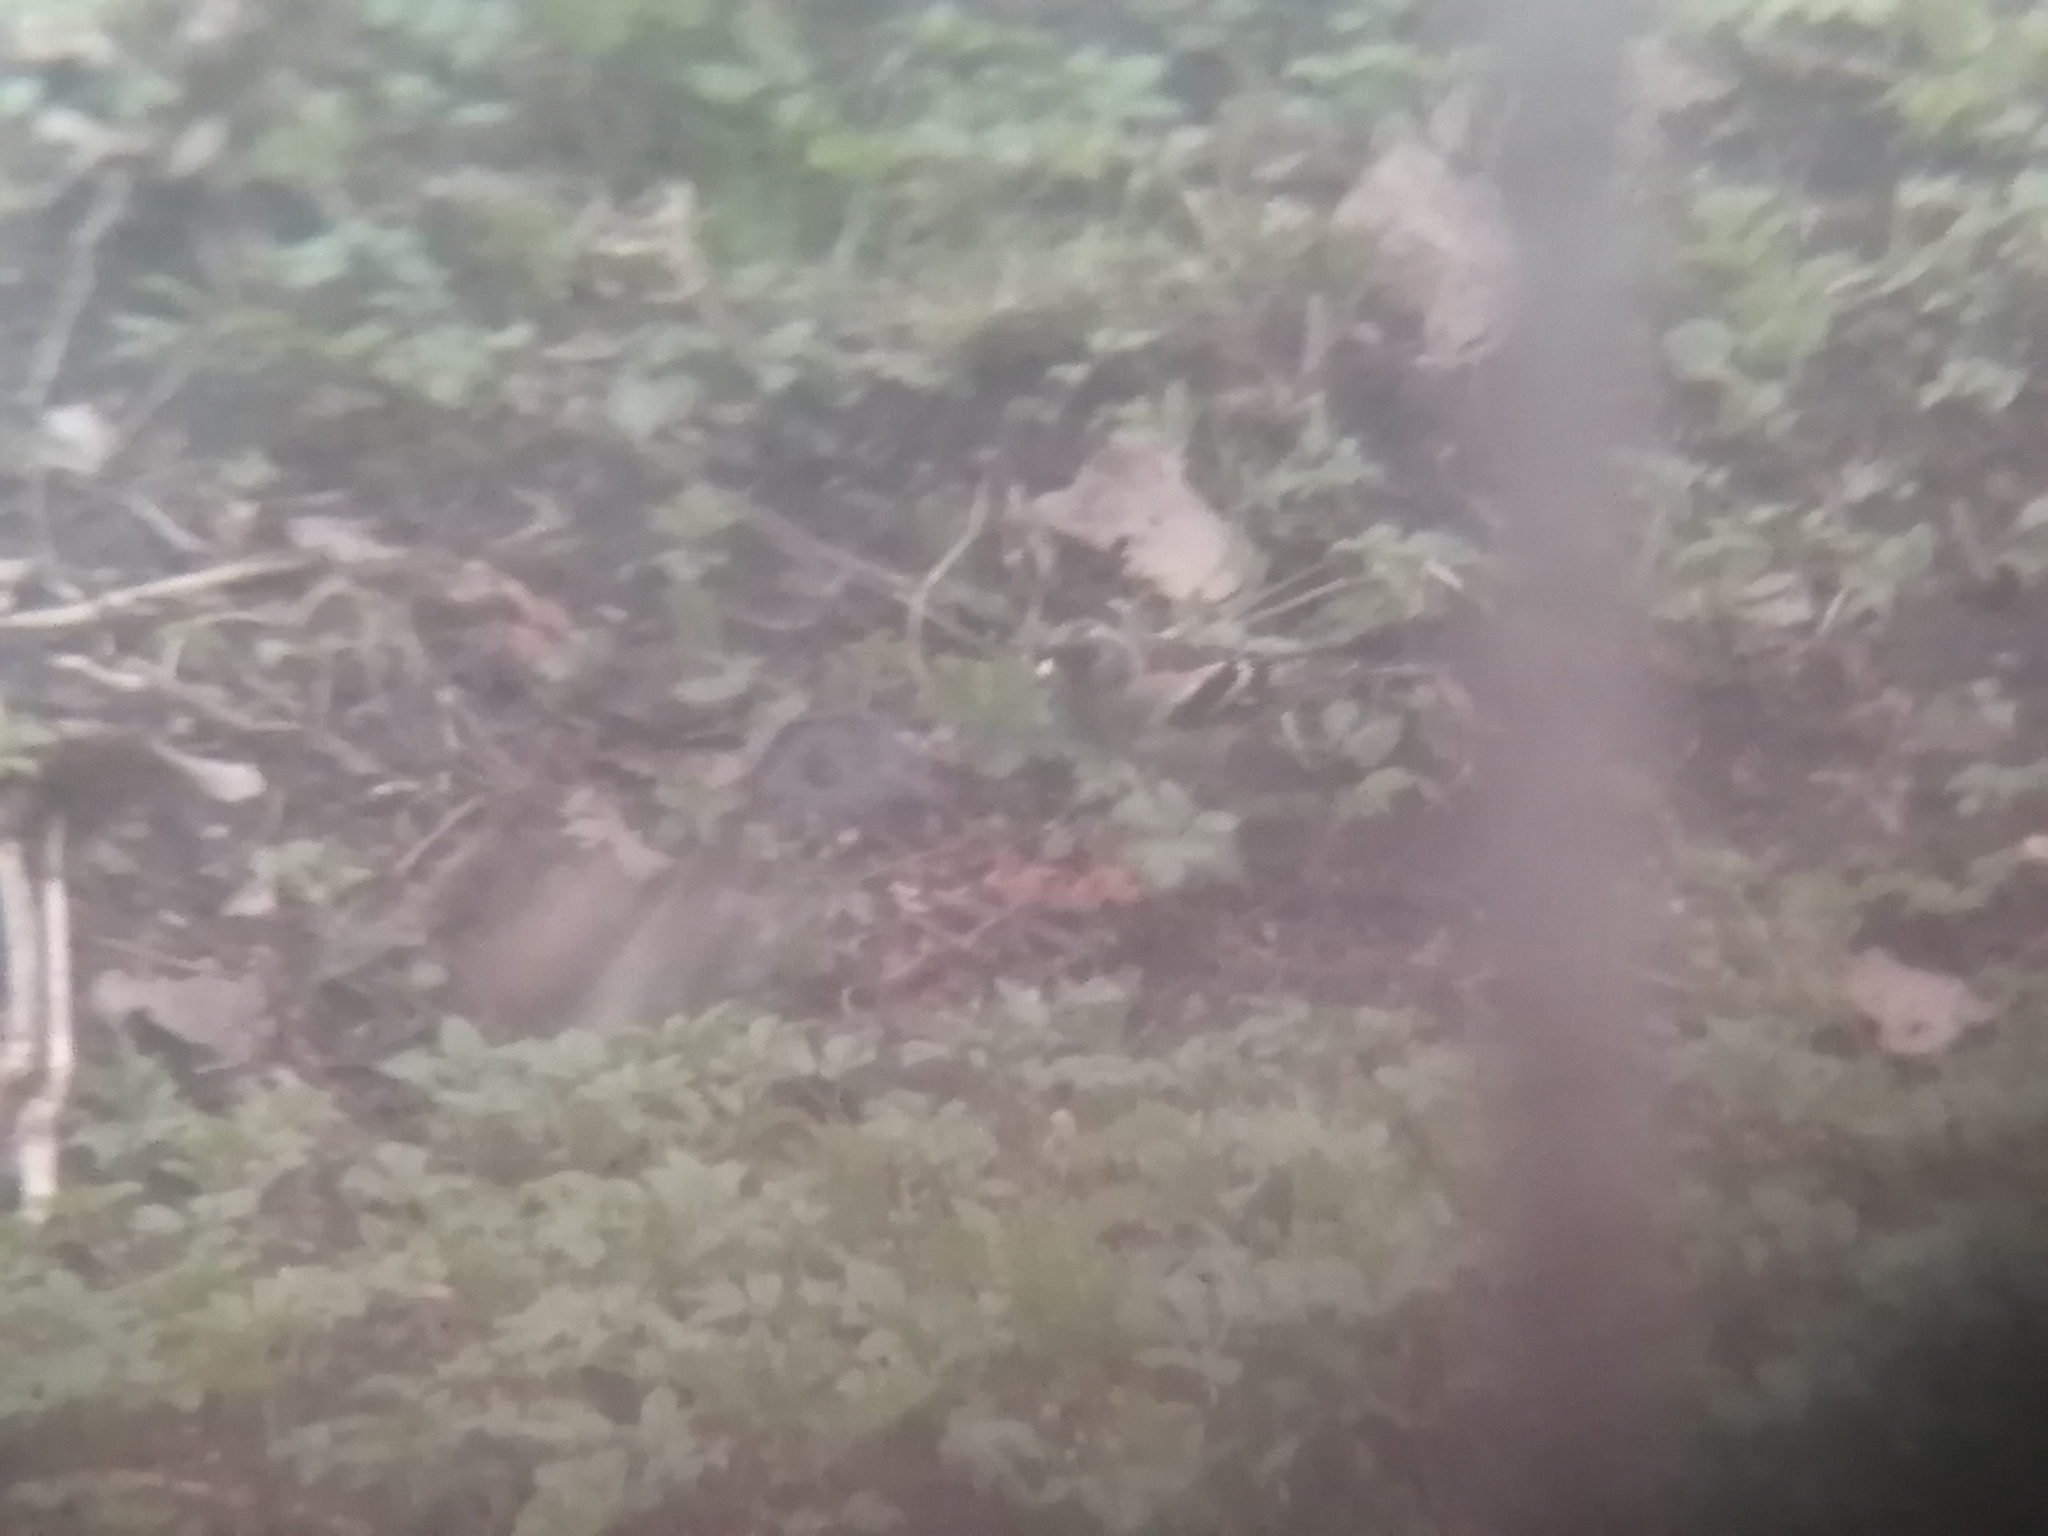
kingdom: Animalia
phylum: Chordata
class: Aves
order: Passeriformes
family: Fringillidae
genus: Fringilla
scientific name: Fringilla montifringilla
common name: Brambling
